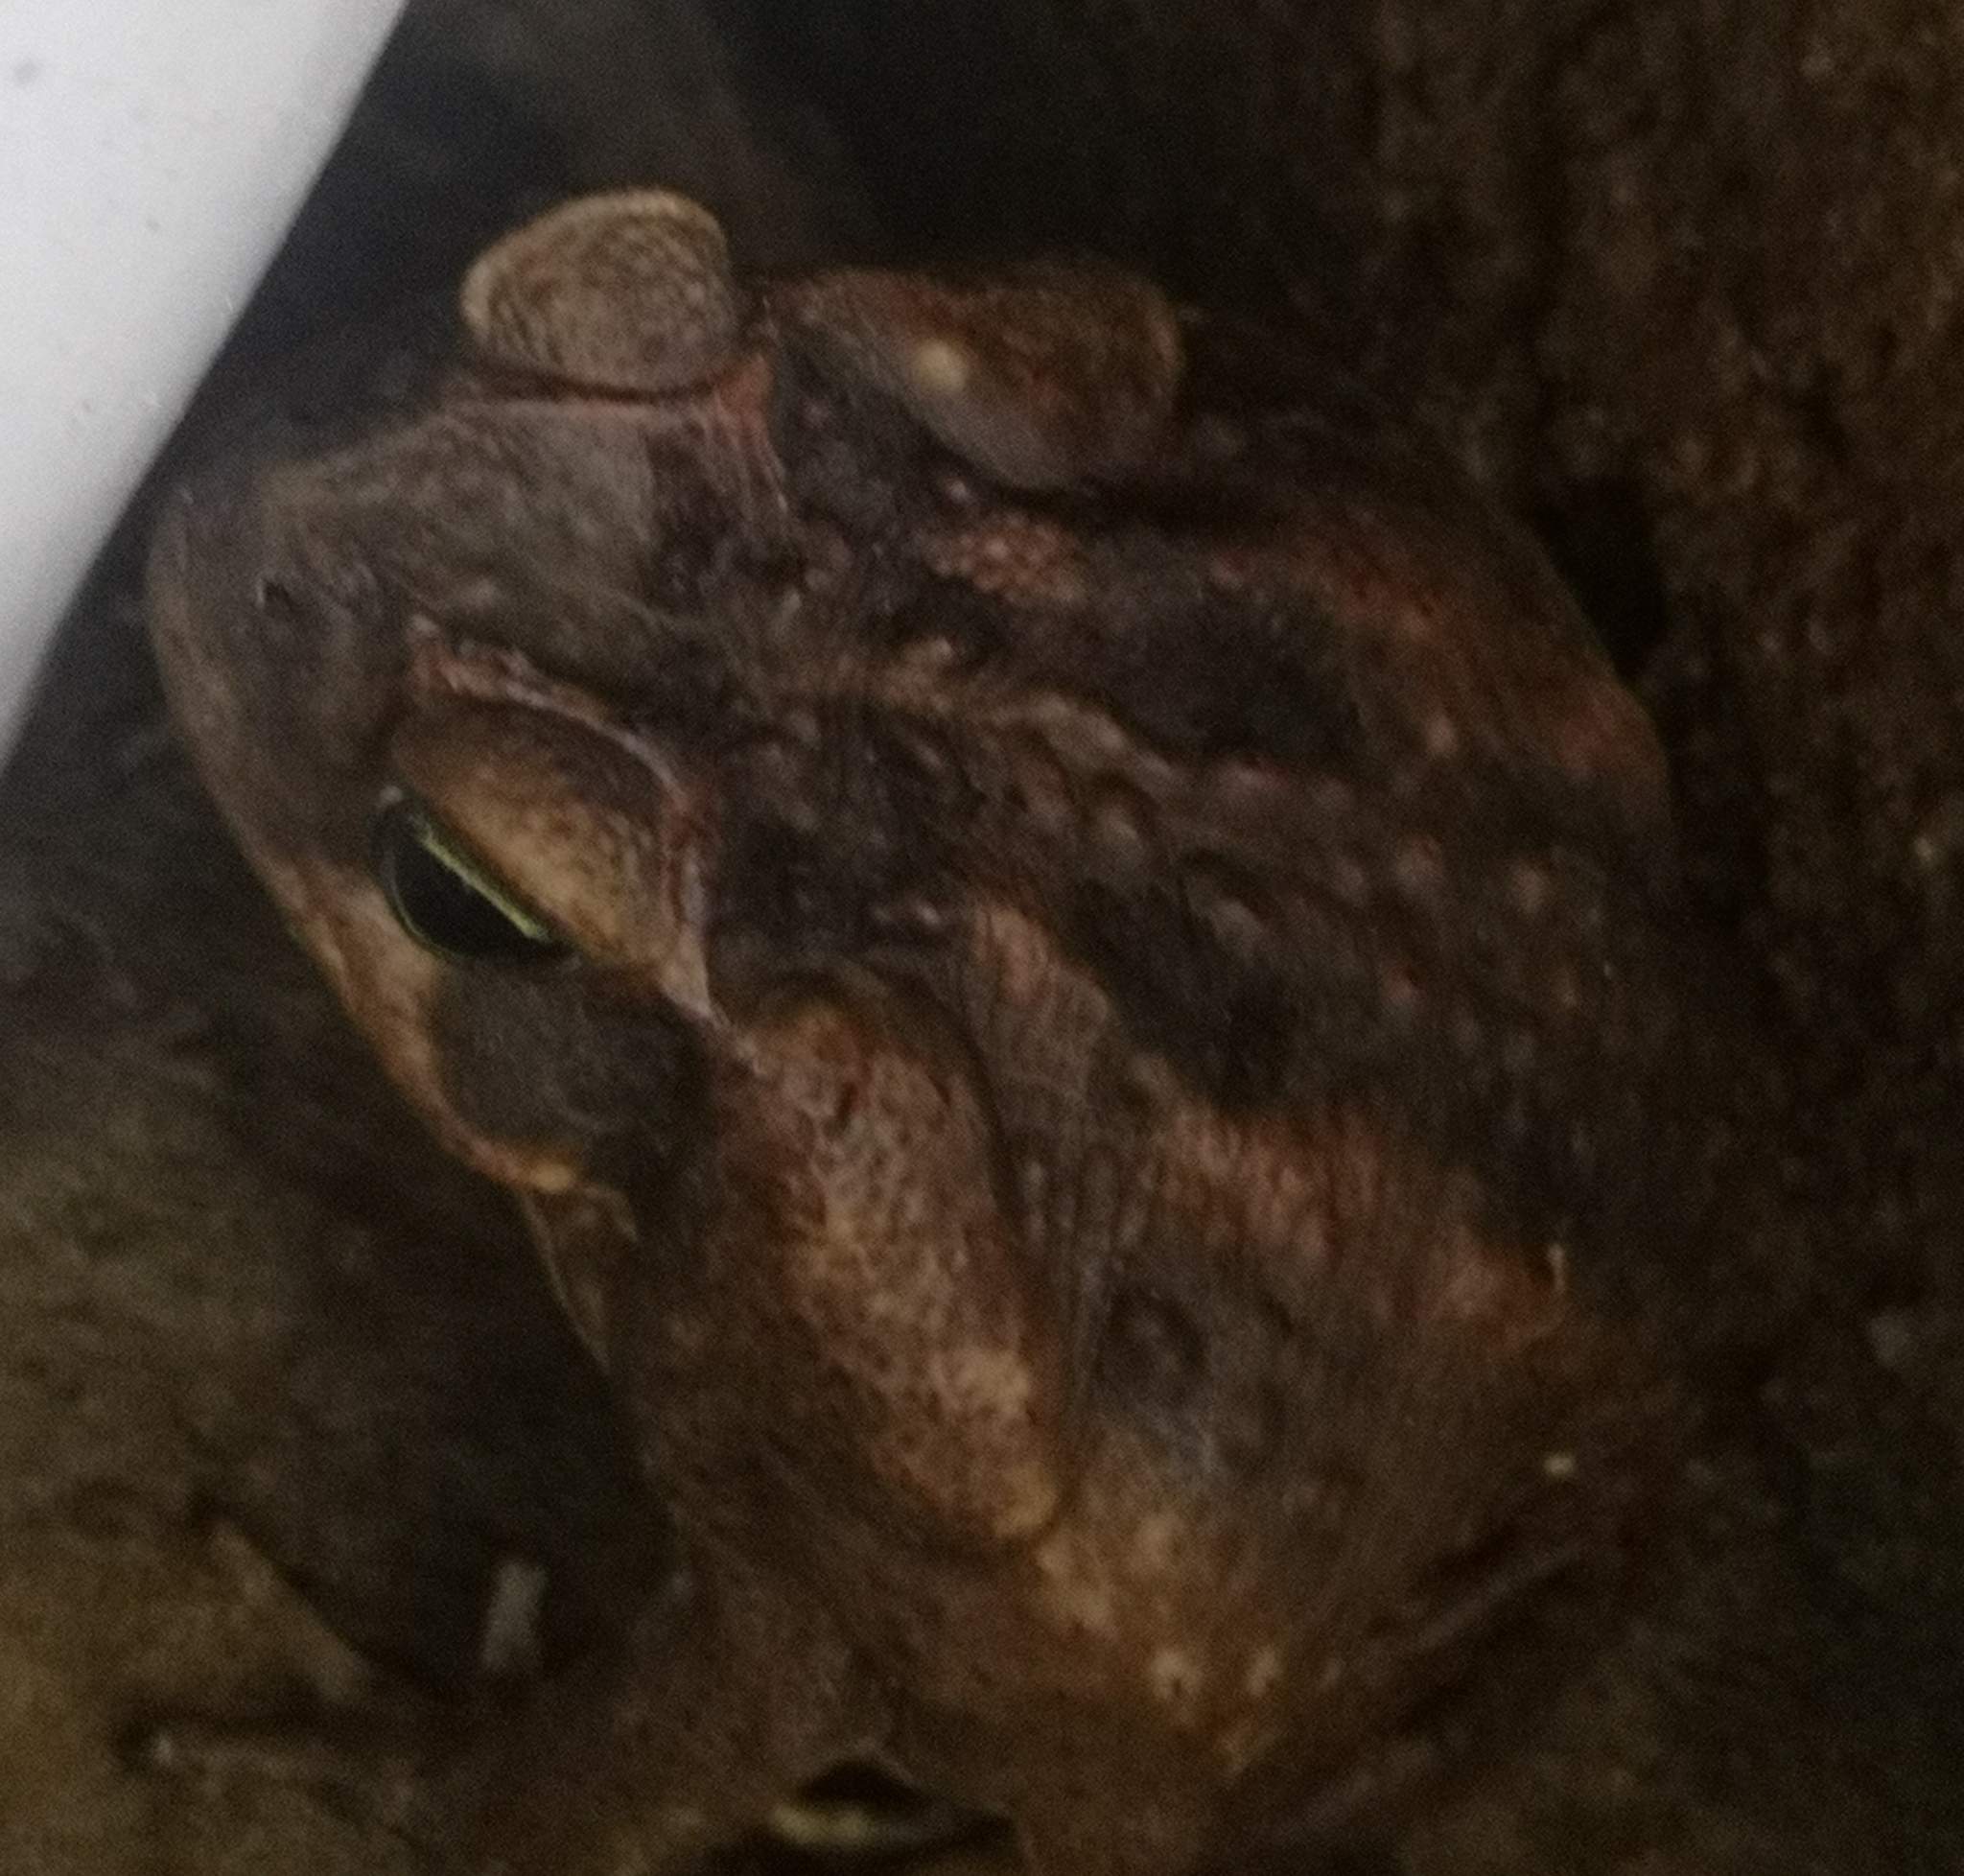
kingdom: Animalia
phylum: Chordata
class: Amphibia
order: Anura
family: Bufonidae
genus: Rhinella
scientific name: Rhinella horribilis
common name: Mesoamerican cane toad
